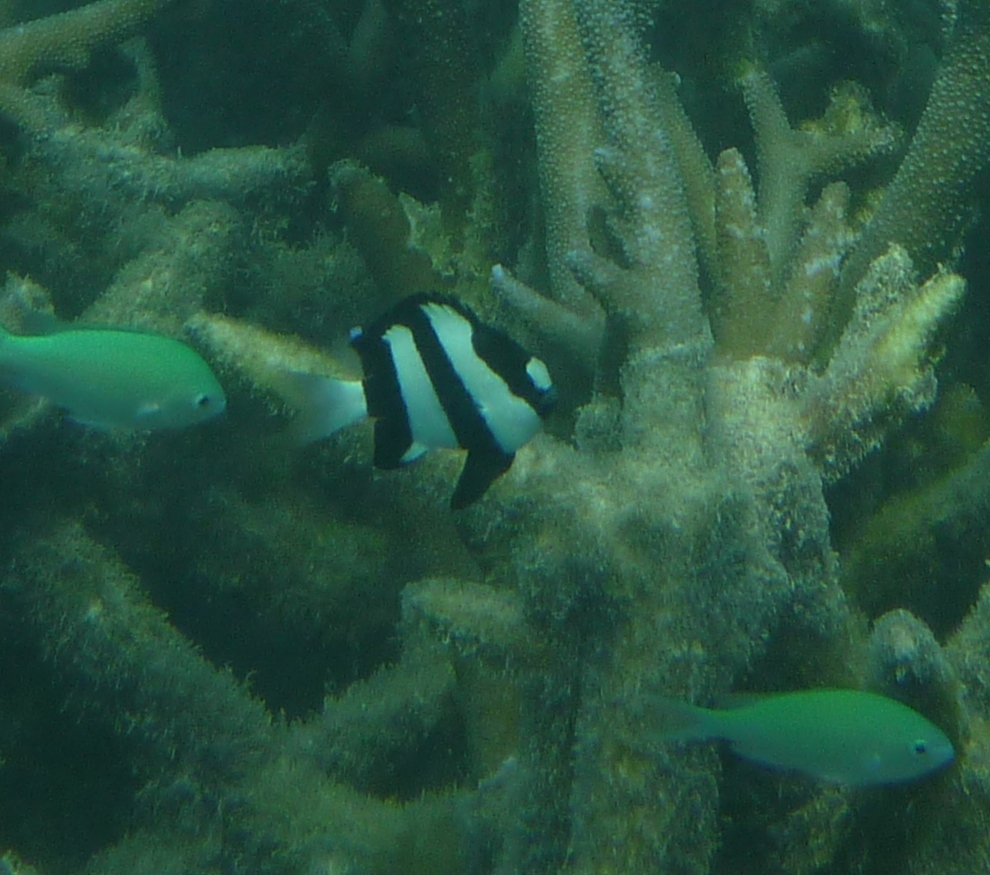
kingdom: Animalia
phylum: Chordata
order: Perciformes
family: Pomacentridae
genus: Dascyllus
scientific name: Dascyllus aruanus
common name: Humbug dascyllus
